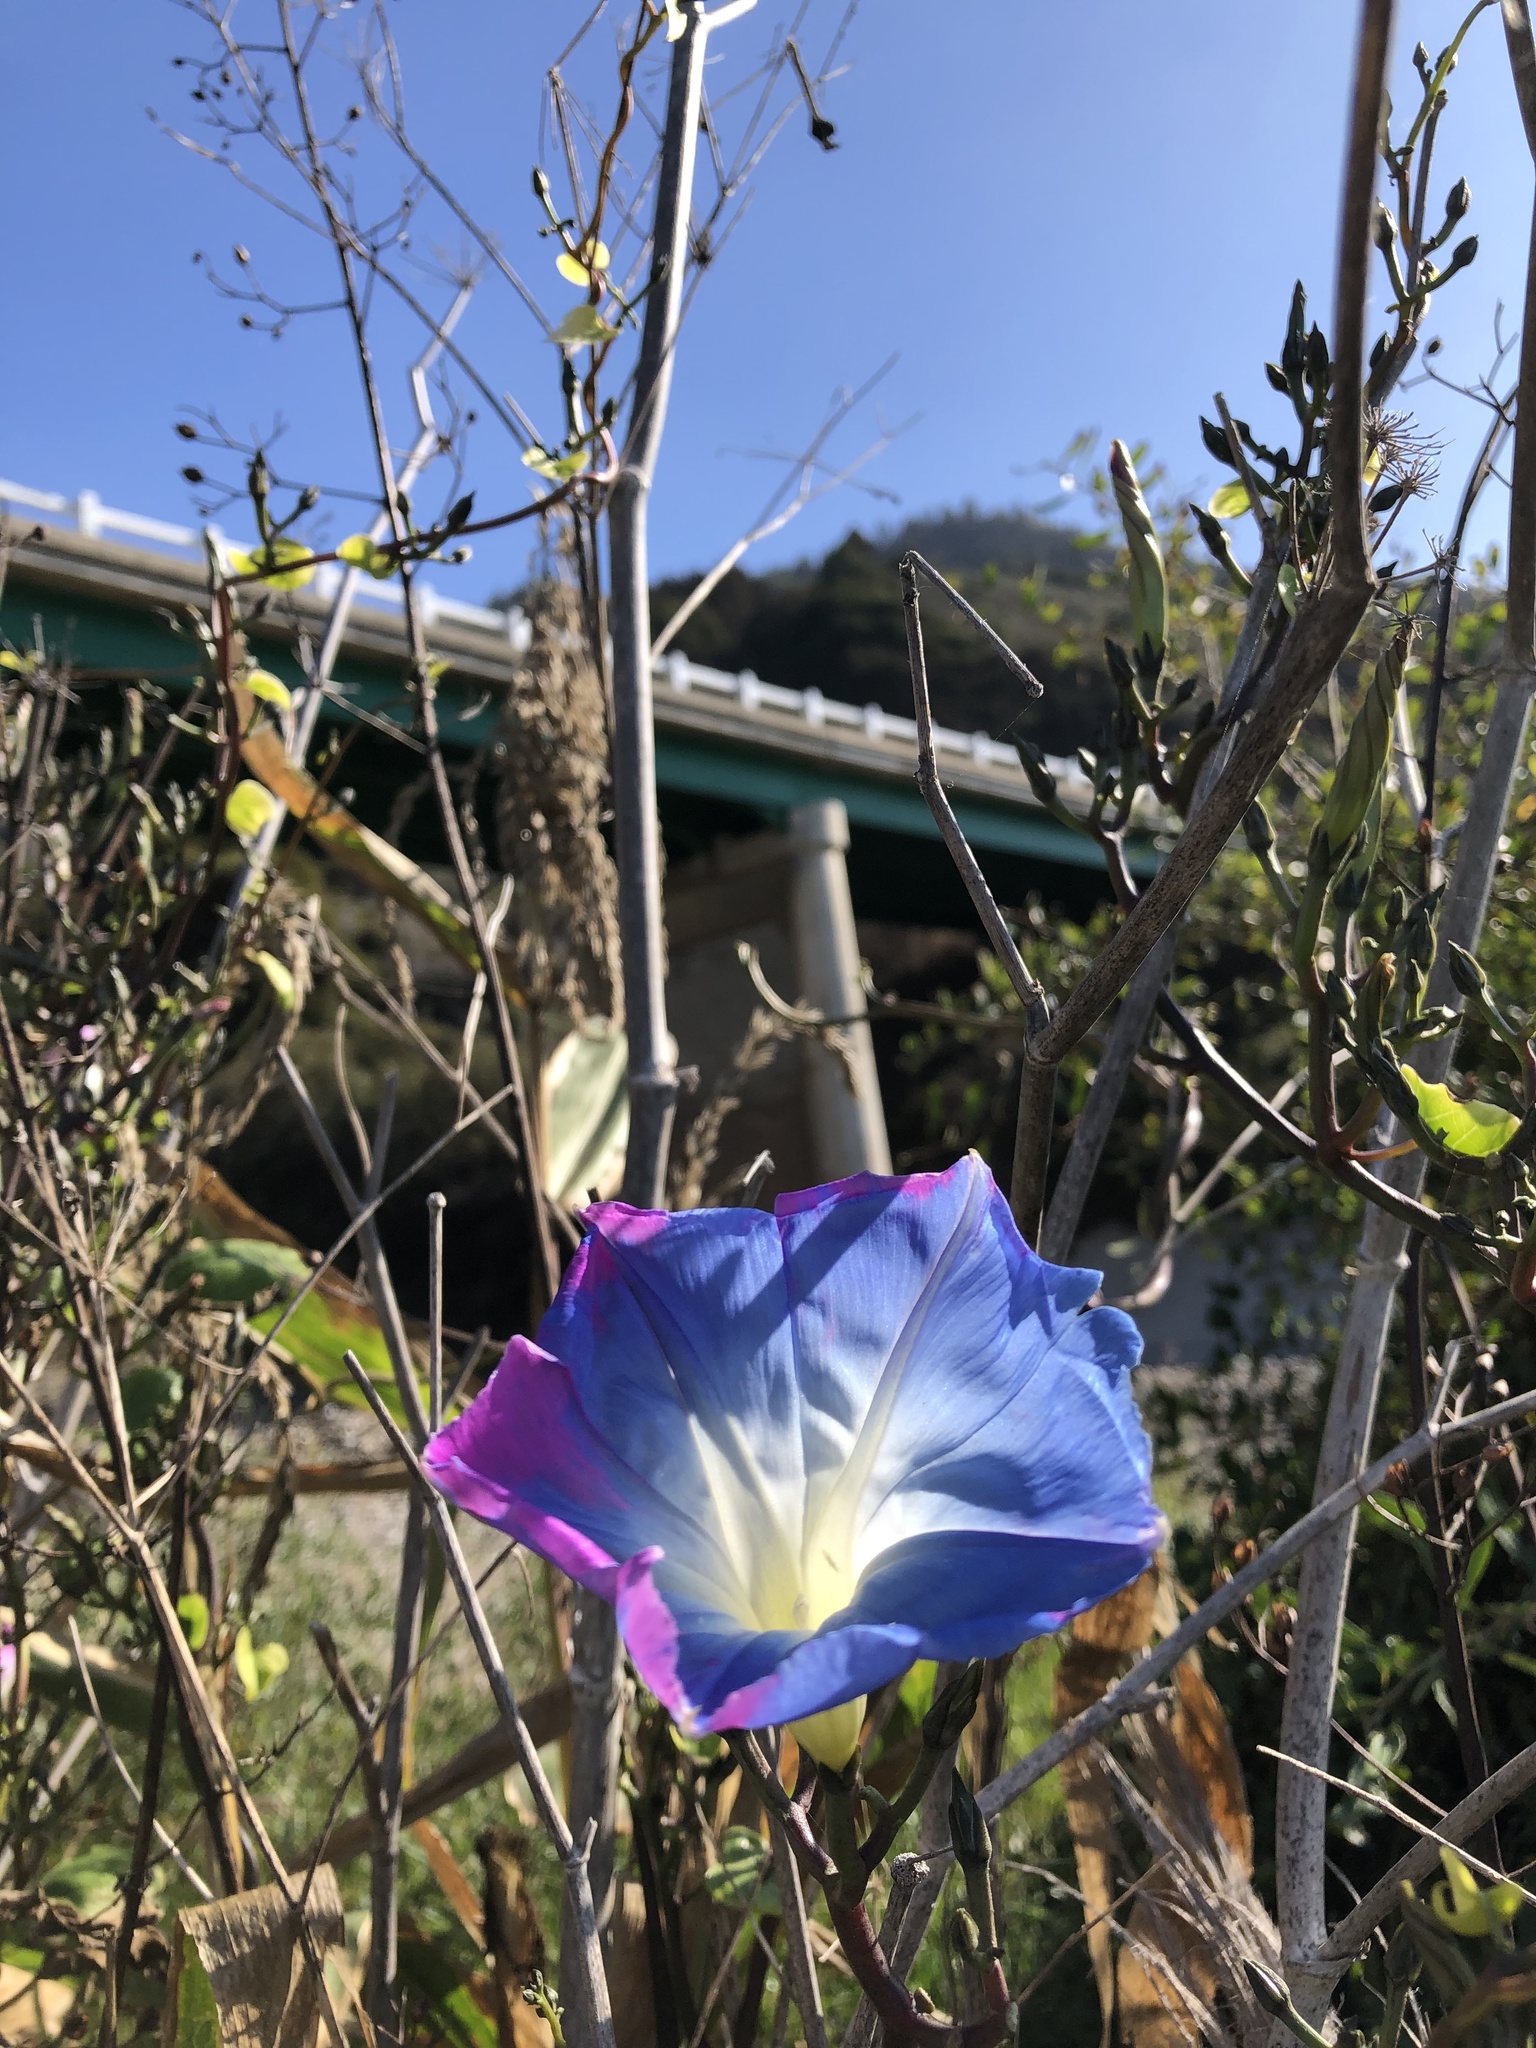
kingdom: Plantae
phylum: Tracheophyta
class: Magnoliopsida
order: Solanales
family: Convolvulaceae
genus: Ipomoea
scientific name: Ipomoea tricolor
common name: Morning-glory
